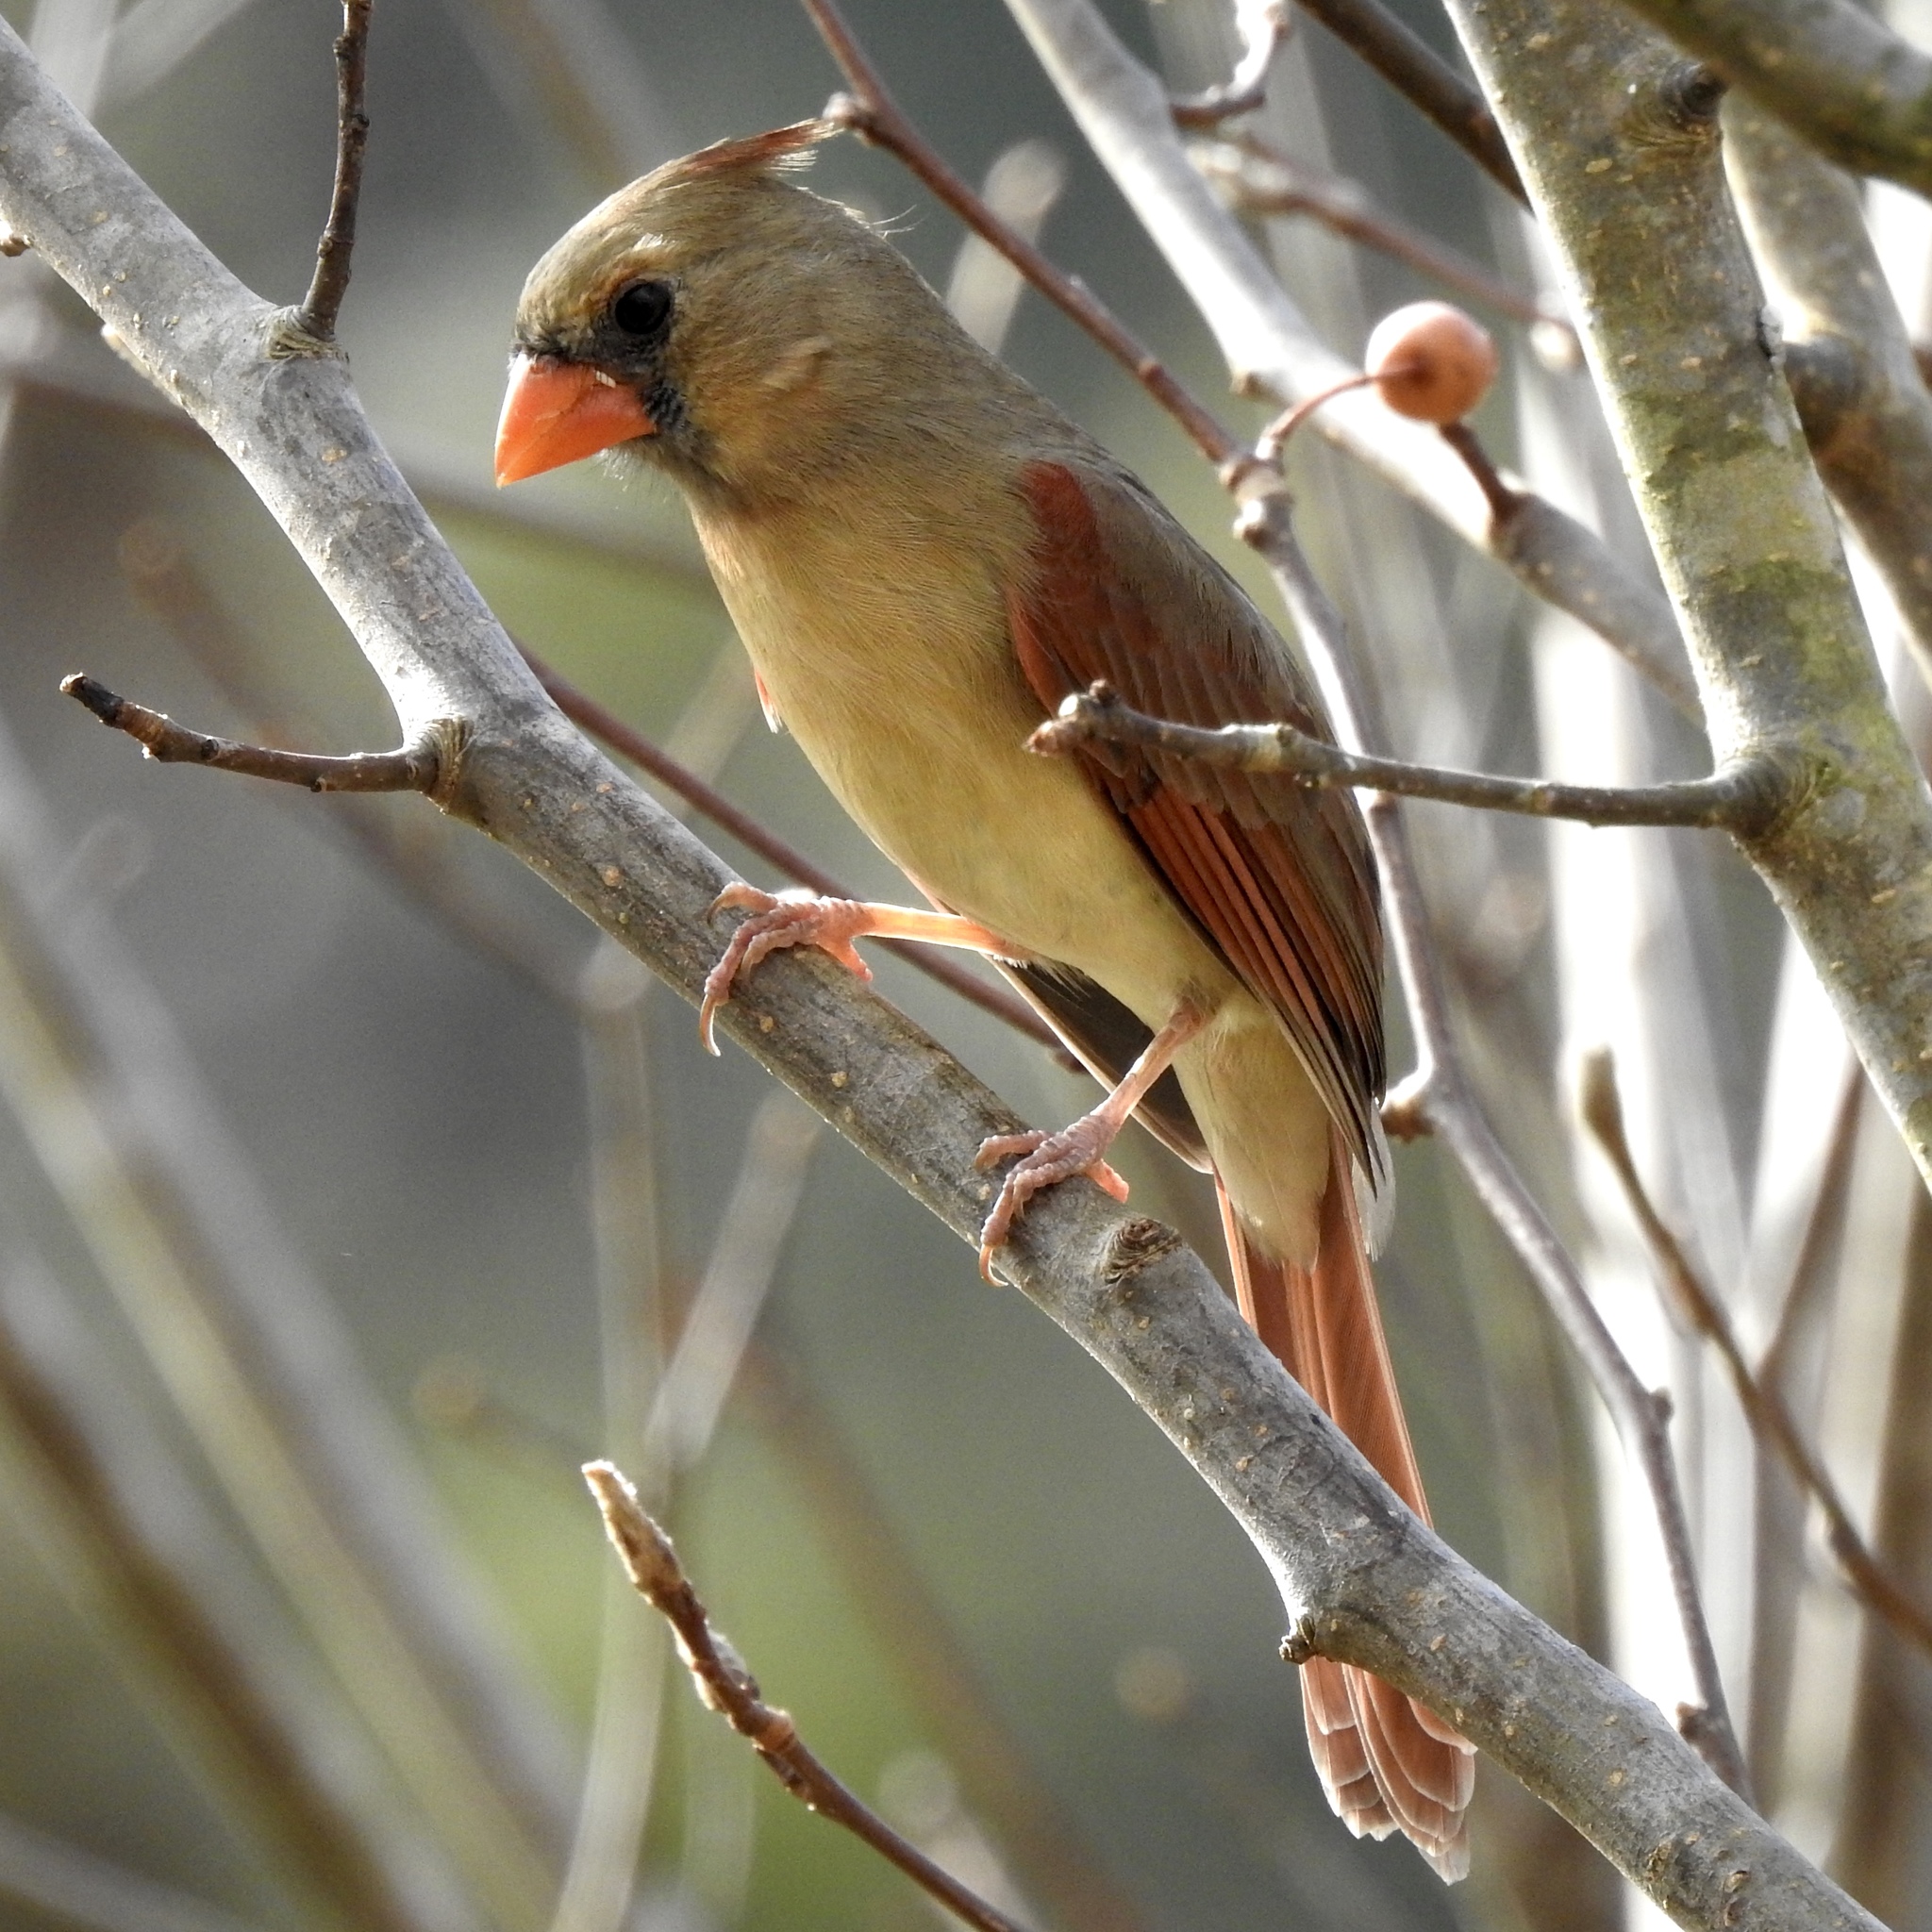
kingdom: Animalia
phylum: Chordata
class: Aves
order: Passeriformes
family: Cardinalidae
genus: Cardinalis
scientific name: Cardinalis cardinalis
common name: Northern cardinal
